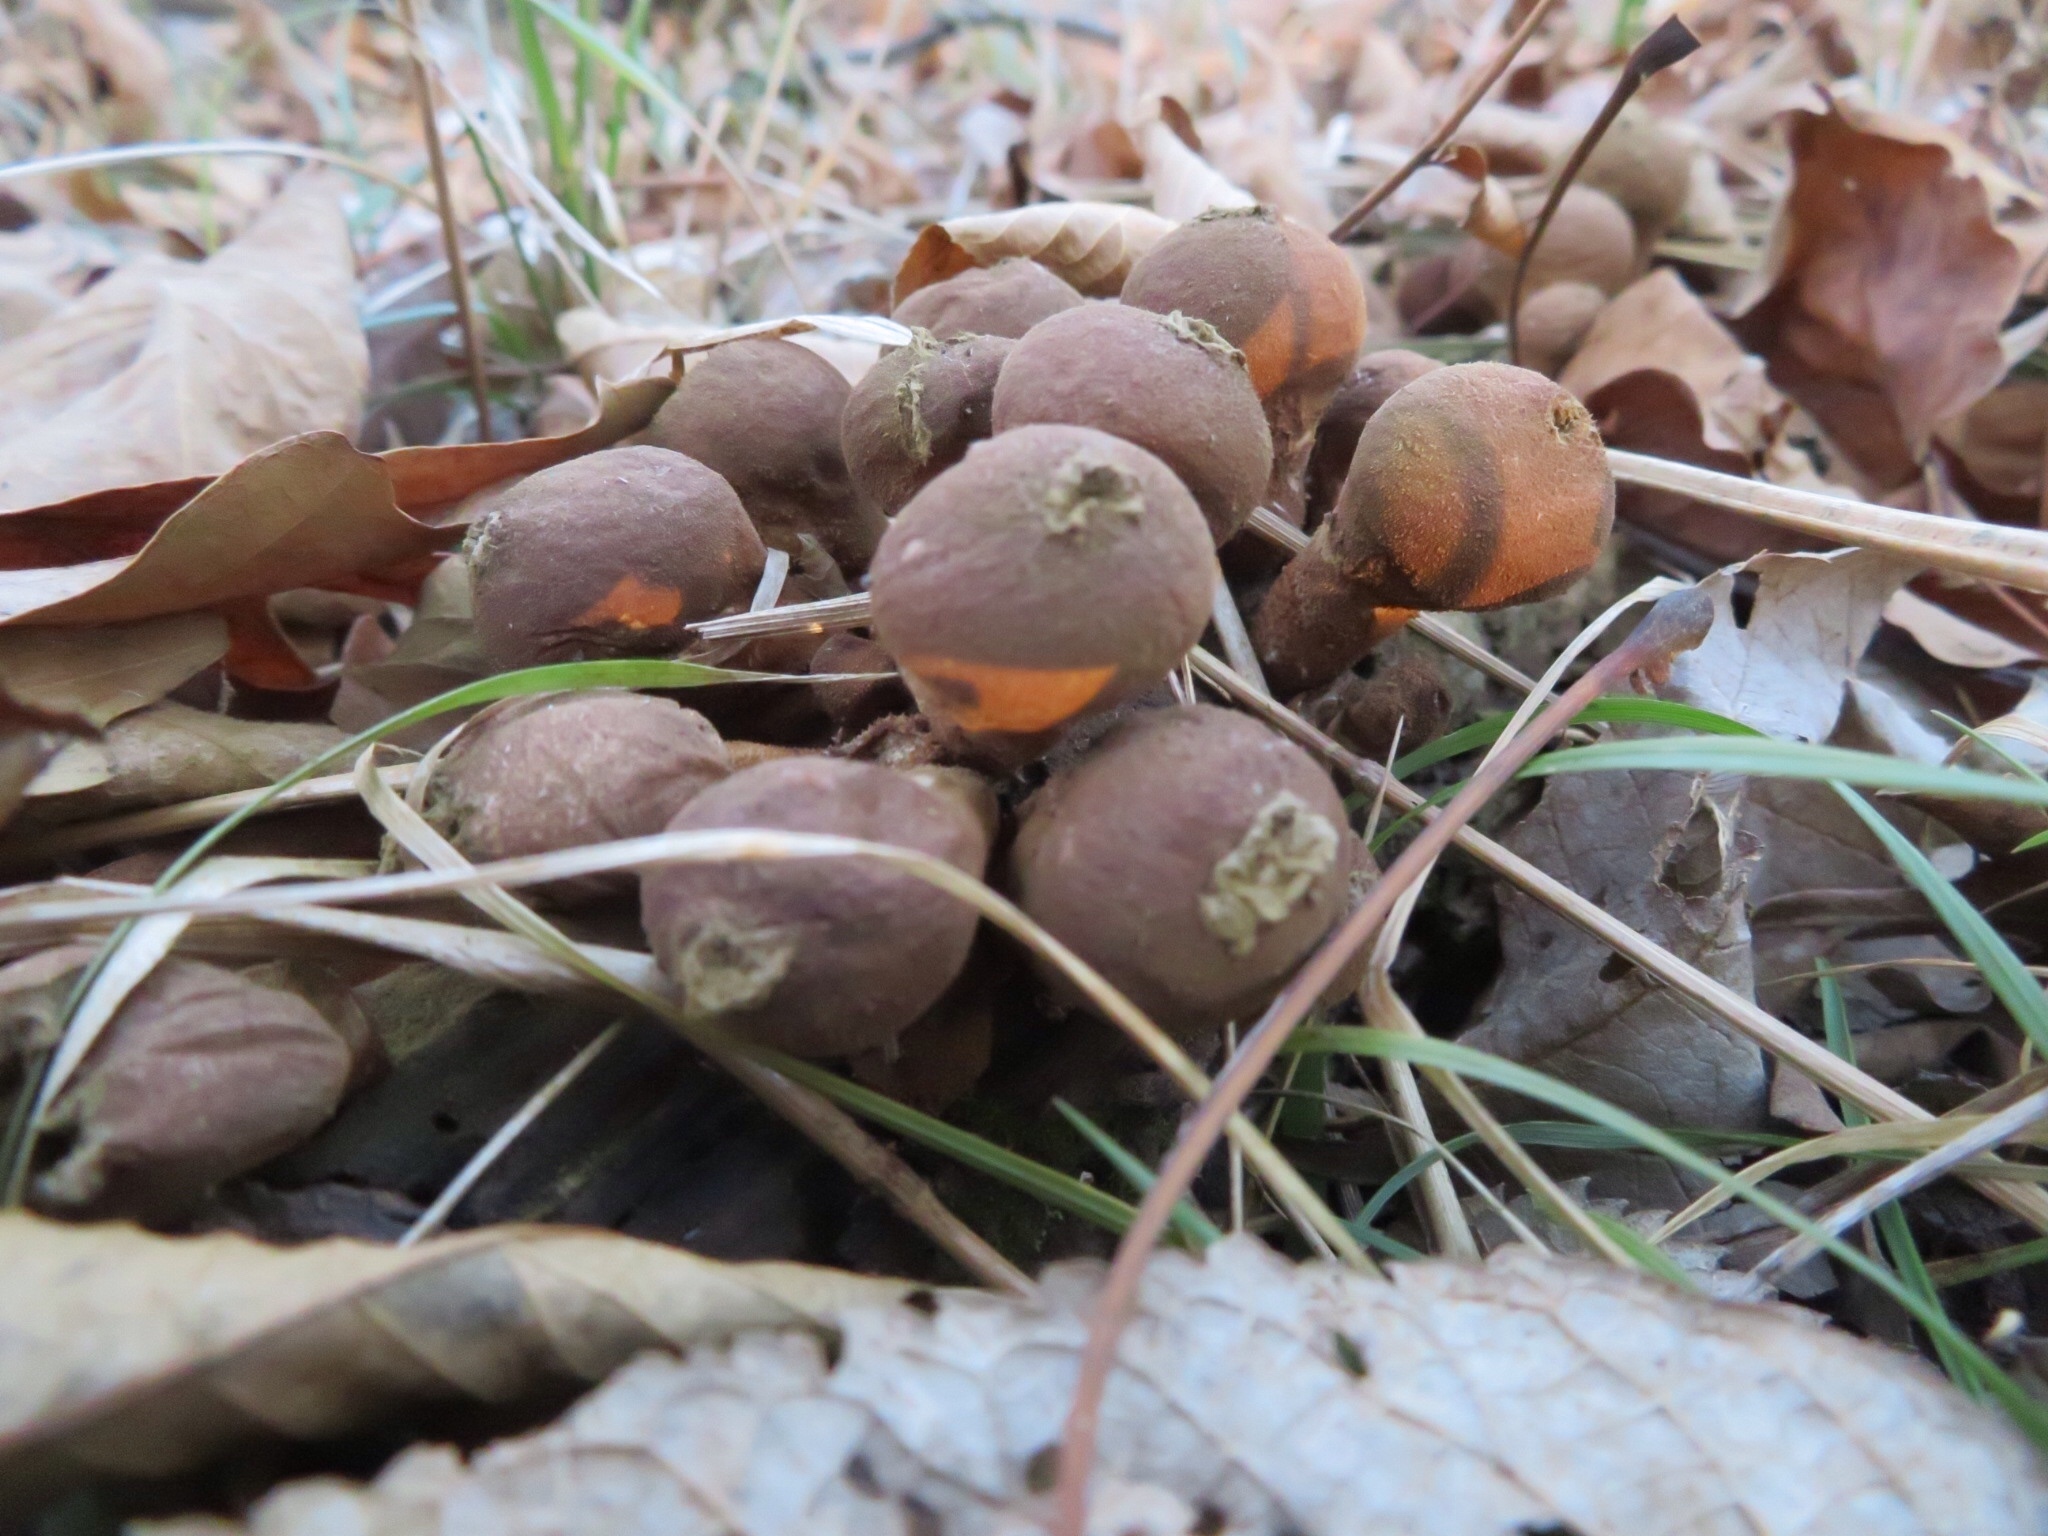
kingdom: Fungi
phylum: Basidiomycota
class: Agaricomycetes
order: Agaricales
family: Lycoperdaceae
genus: Apioperdon
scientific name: Apioperdon pyriforme
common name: Pear-shaped puffball
